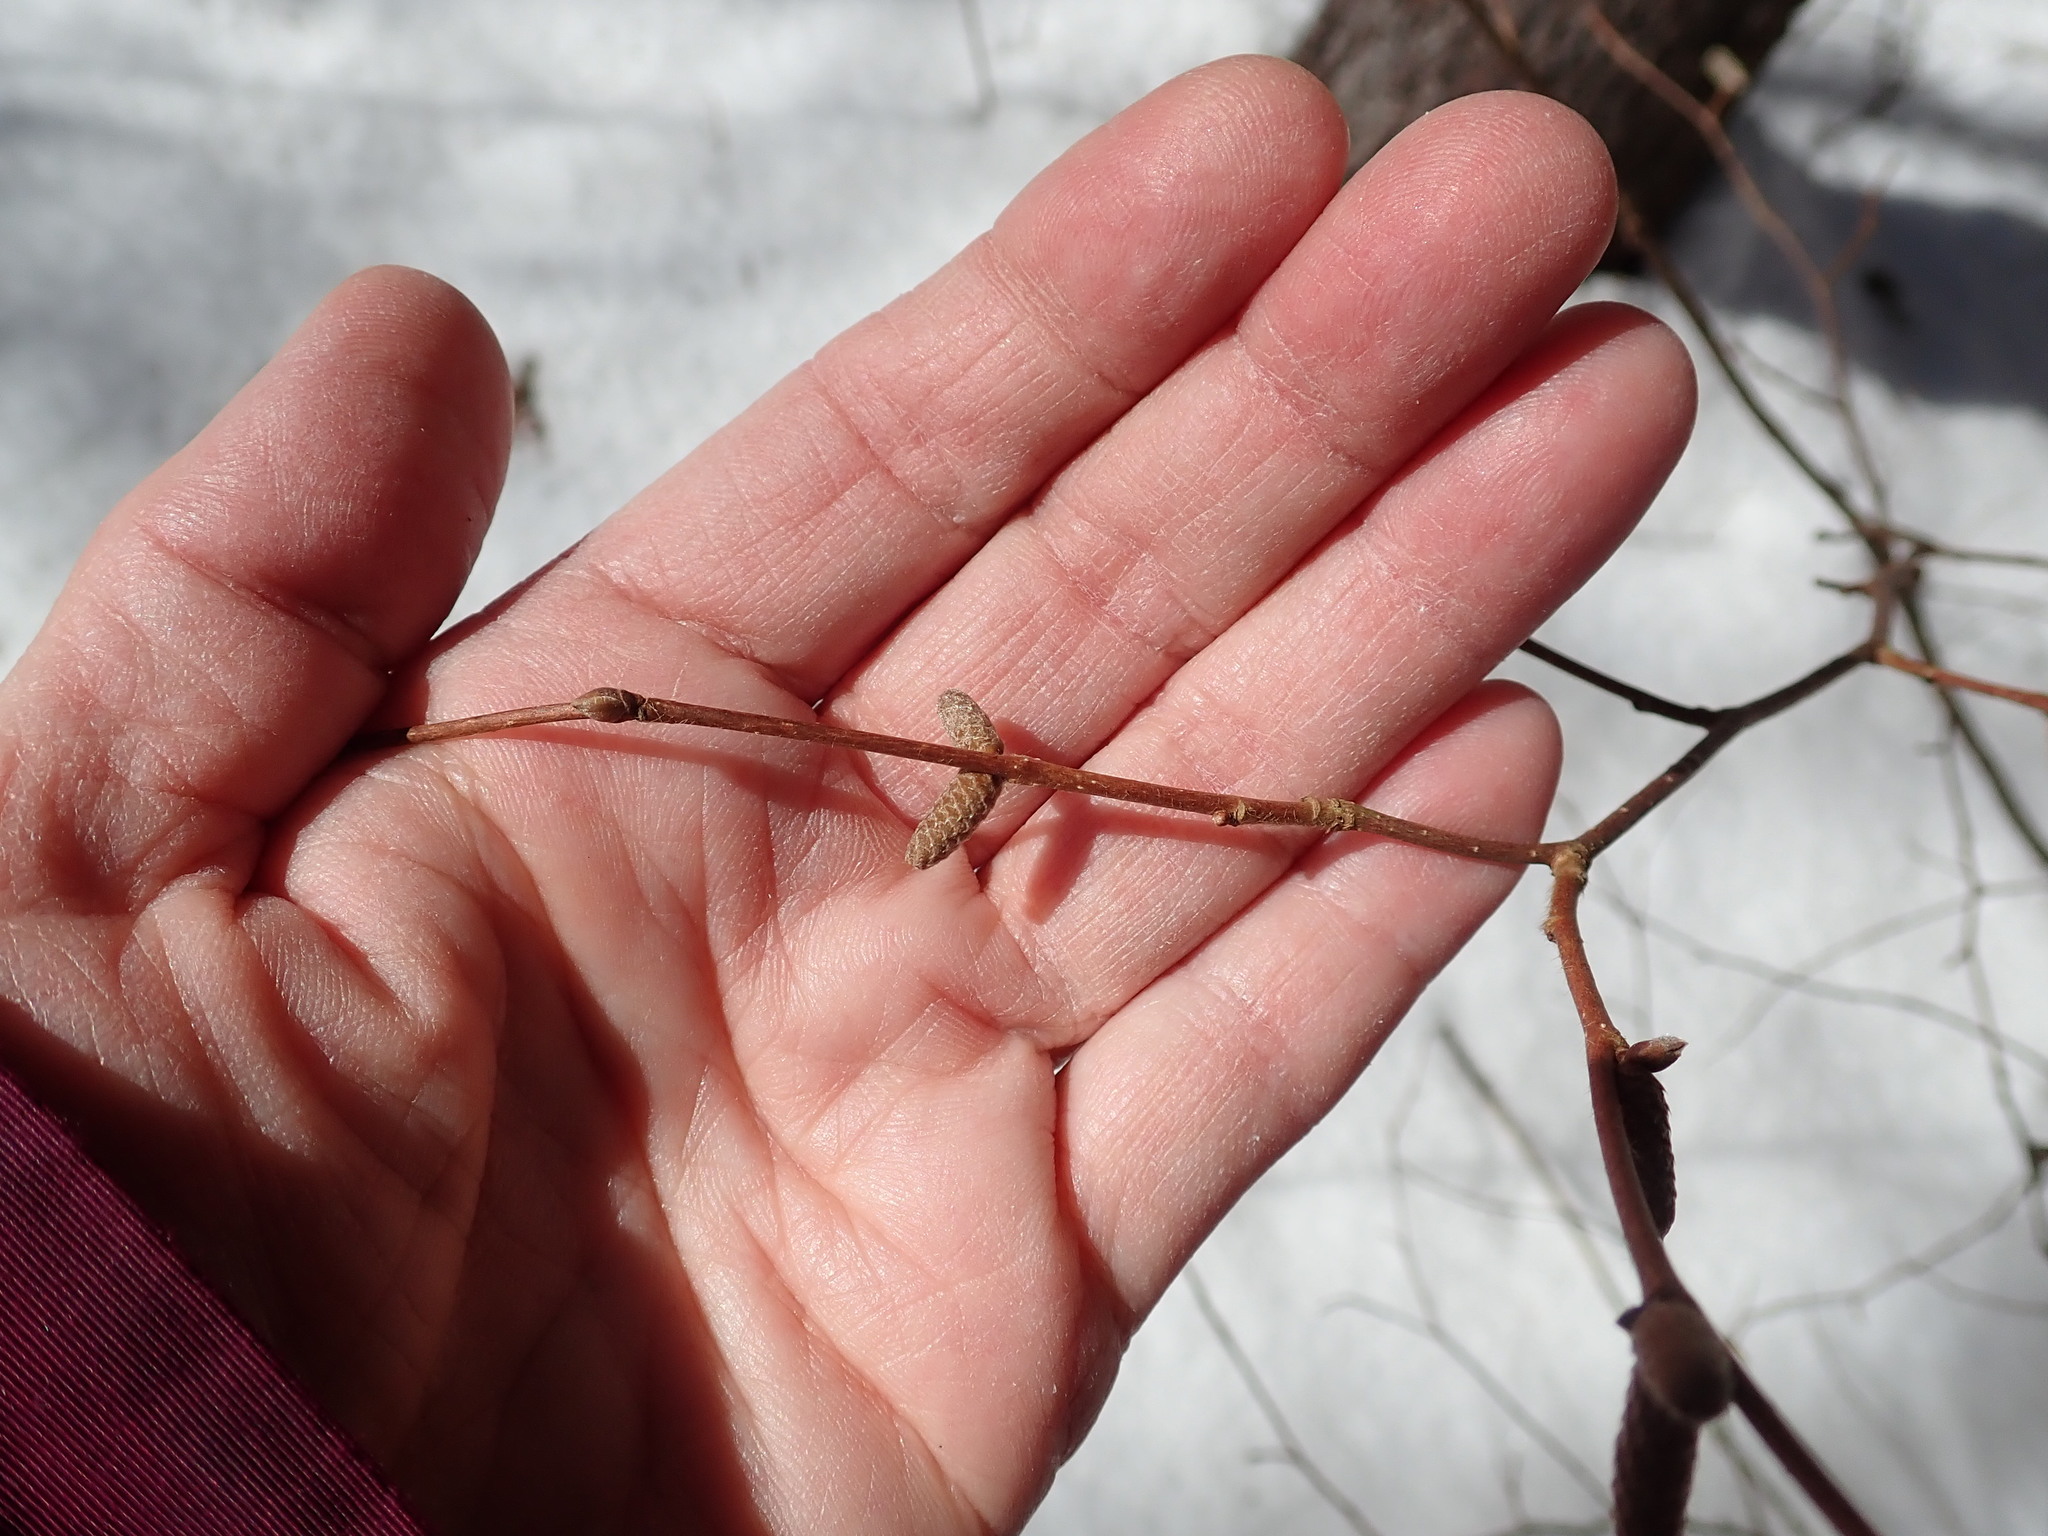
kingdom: Plantae
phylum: Tracheophyta
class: Magnoliopsida
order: Fagales
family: Betulaceae
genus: Corylus
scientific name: Corylus cornuta
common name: Beaked hazel
